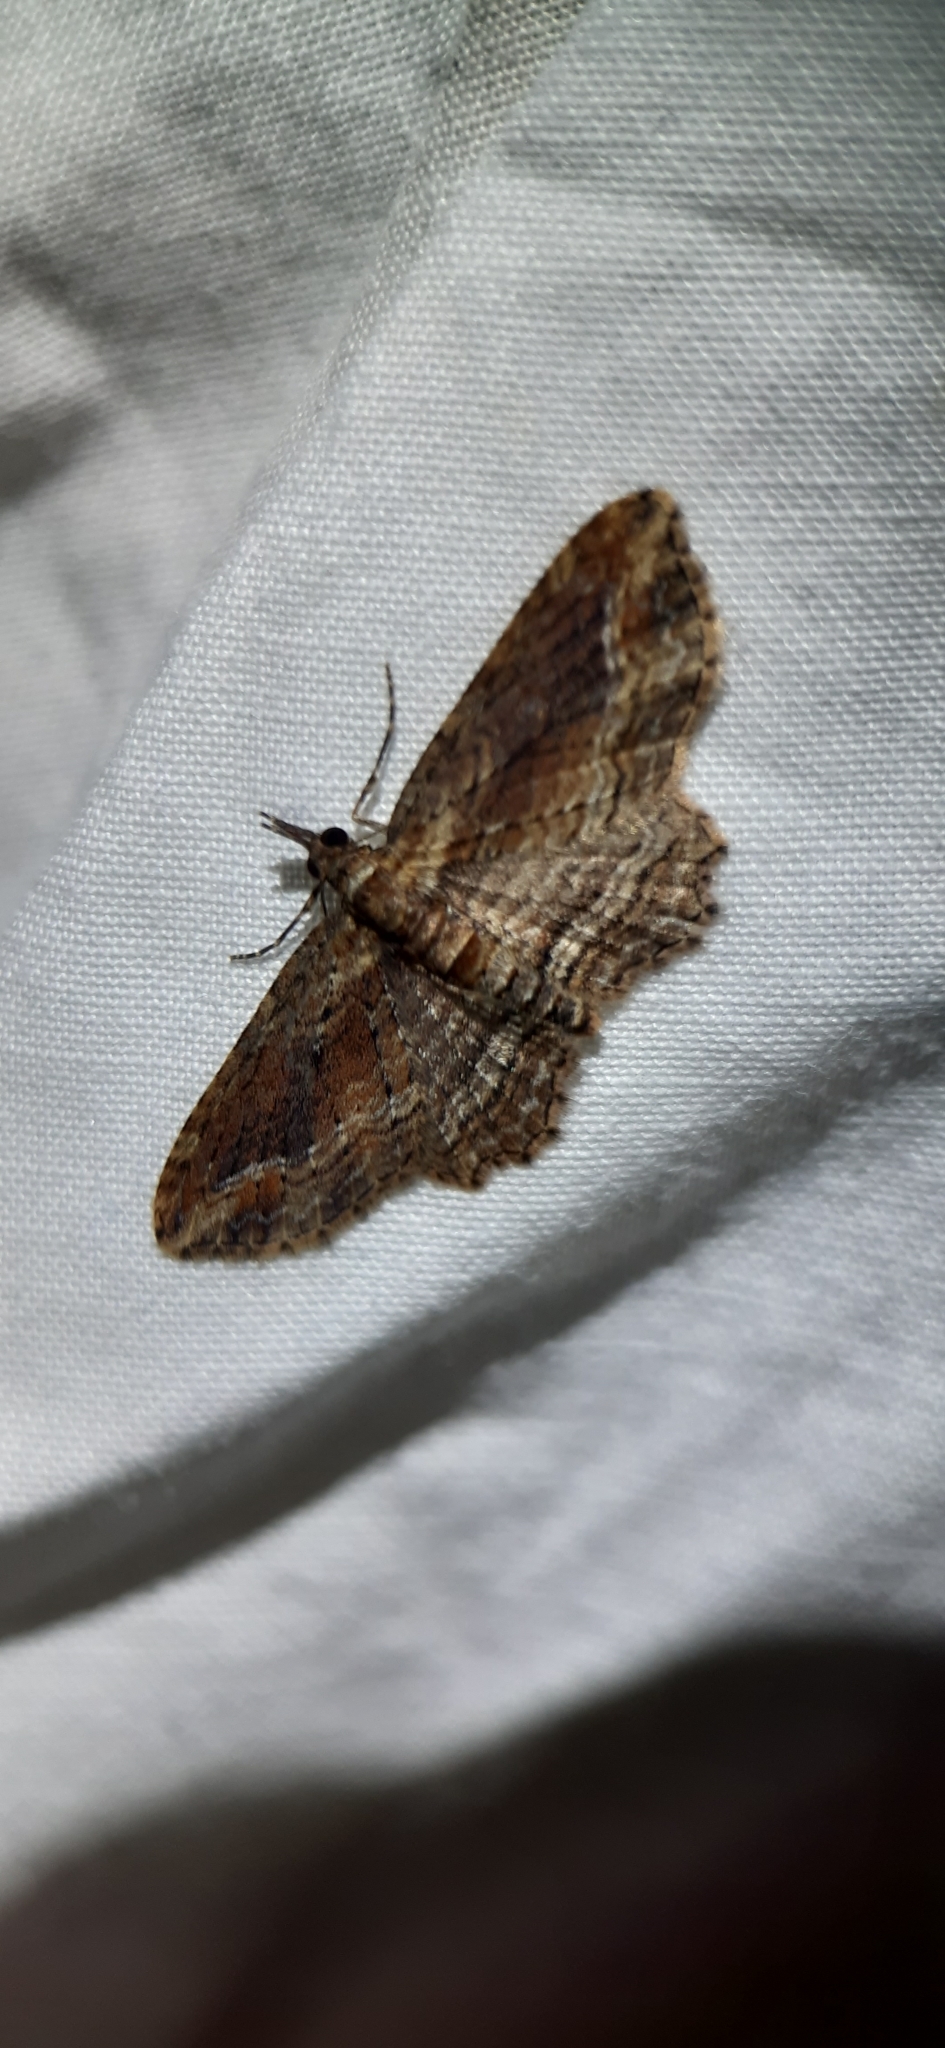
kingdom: Animalia
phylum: Arthropoda
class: Insecta
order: Lepidoptera
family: Geometridae
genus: Chloroclystis
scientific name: Chloroclystis filata
